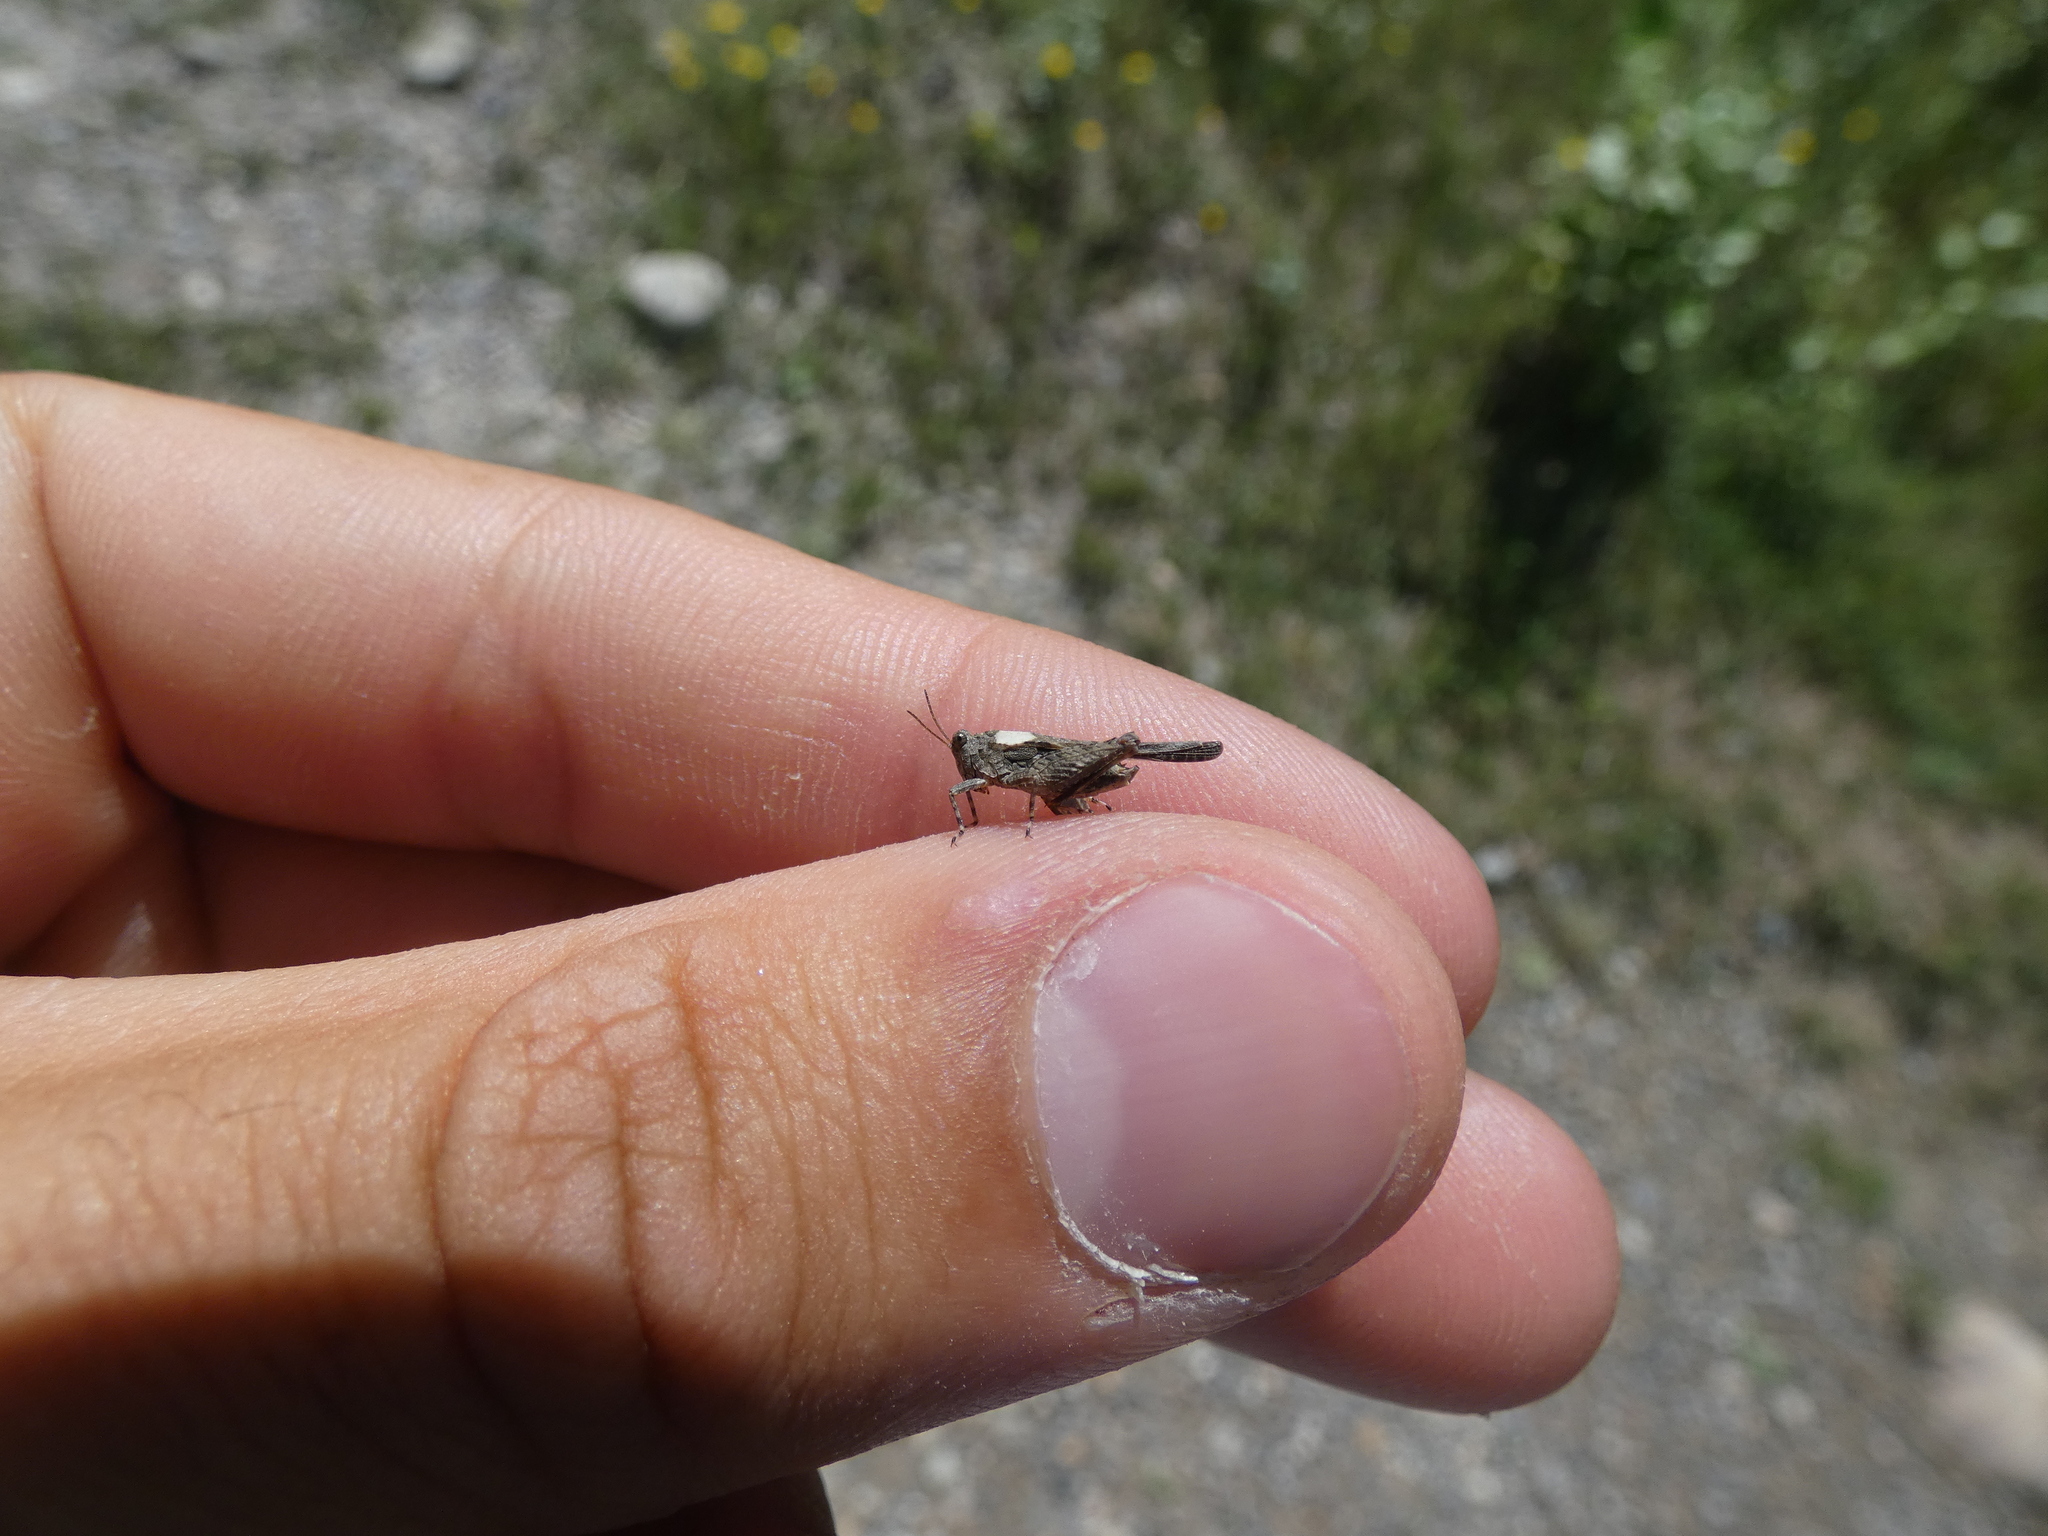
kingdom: Animalia
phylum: Arthropoda
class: Insecta
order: Orthoptera
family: Tetrigidae
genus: Paratettix
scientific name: Paratettix meridionalis
